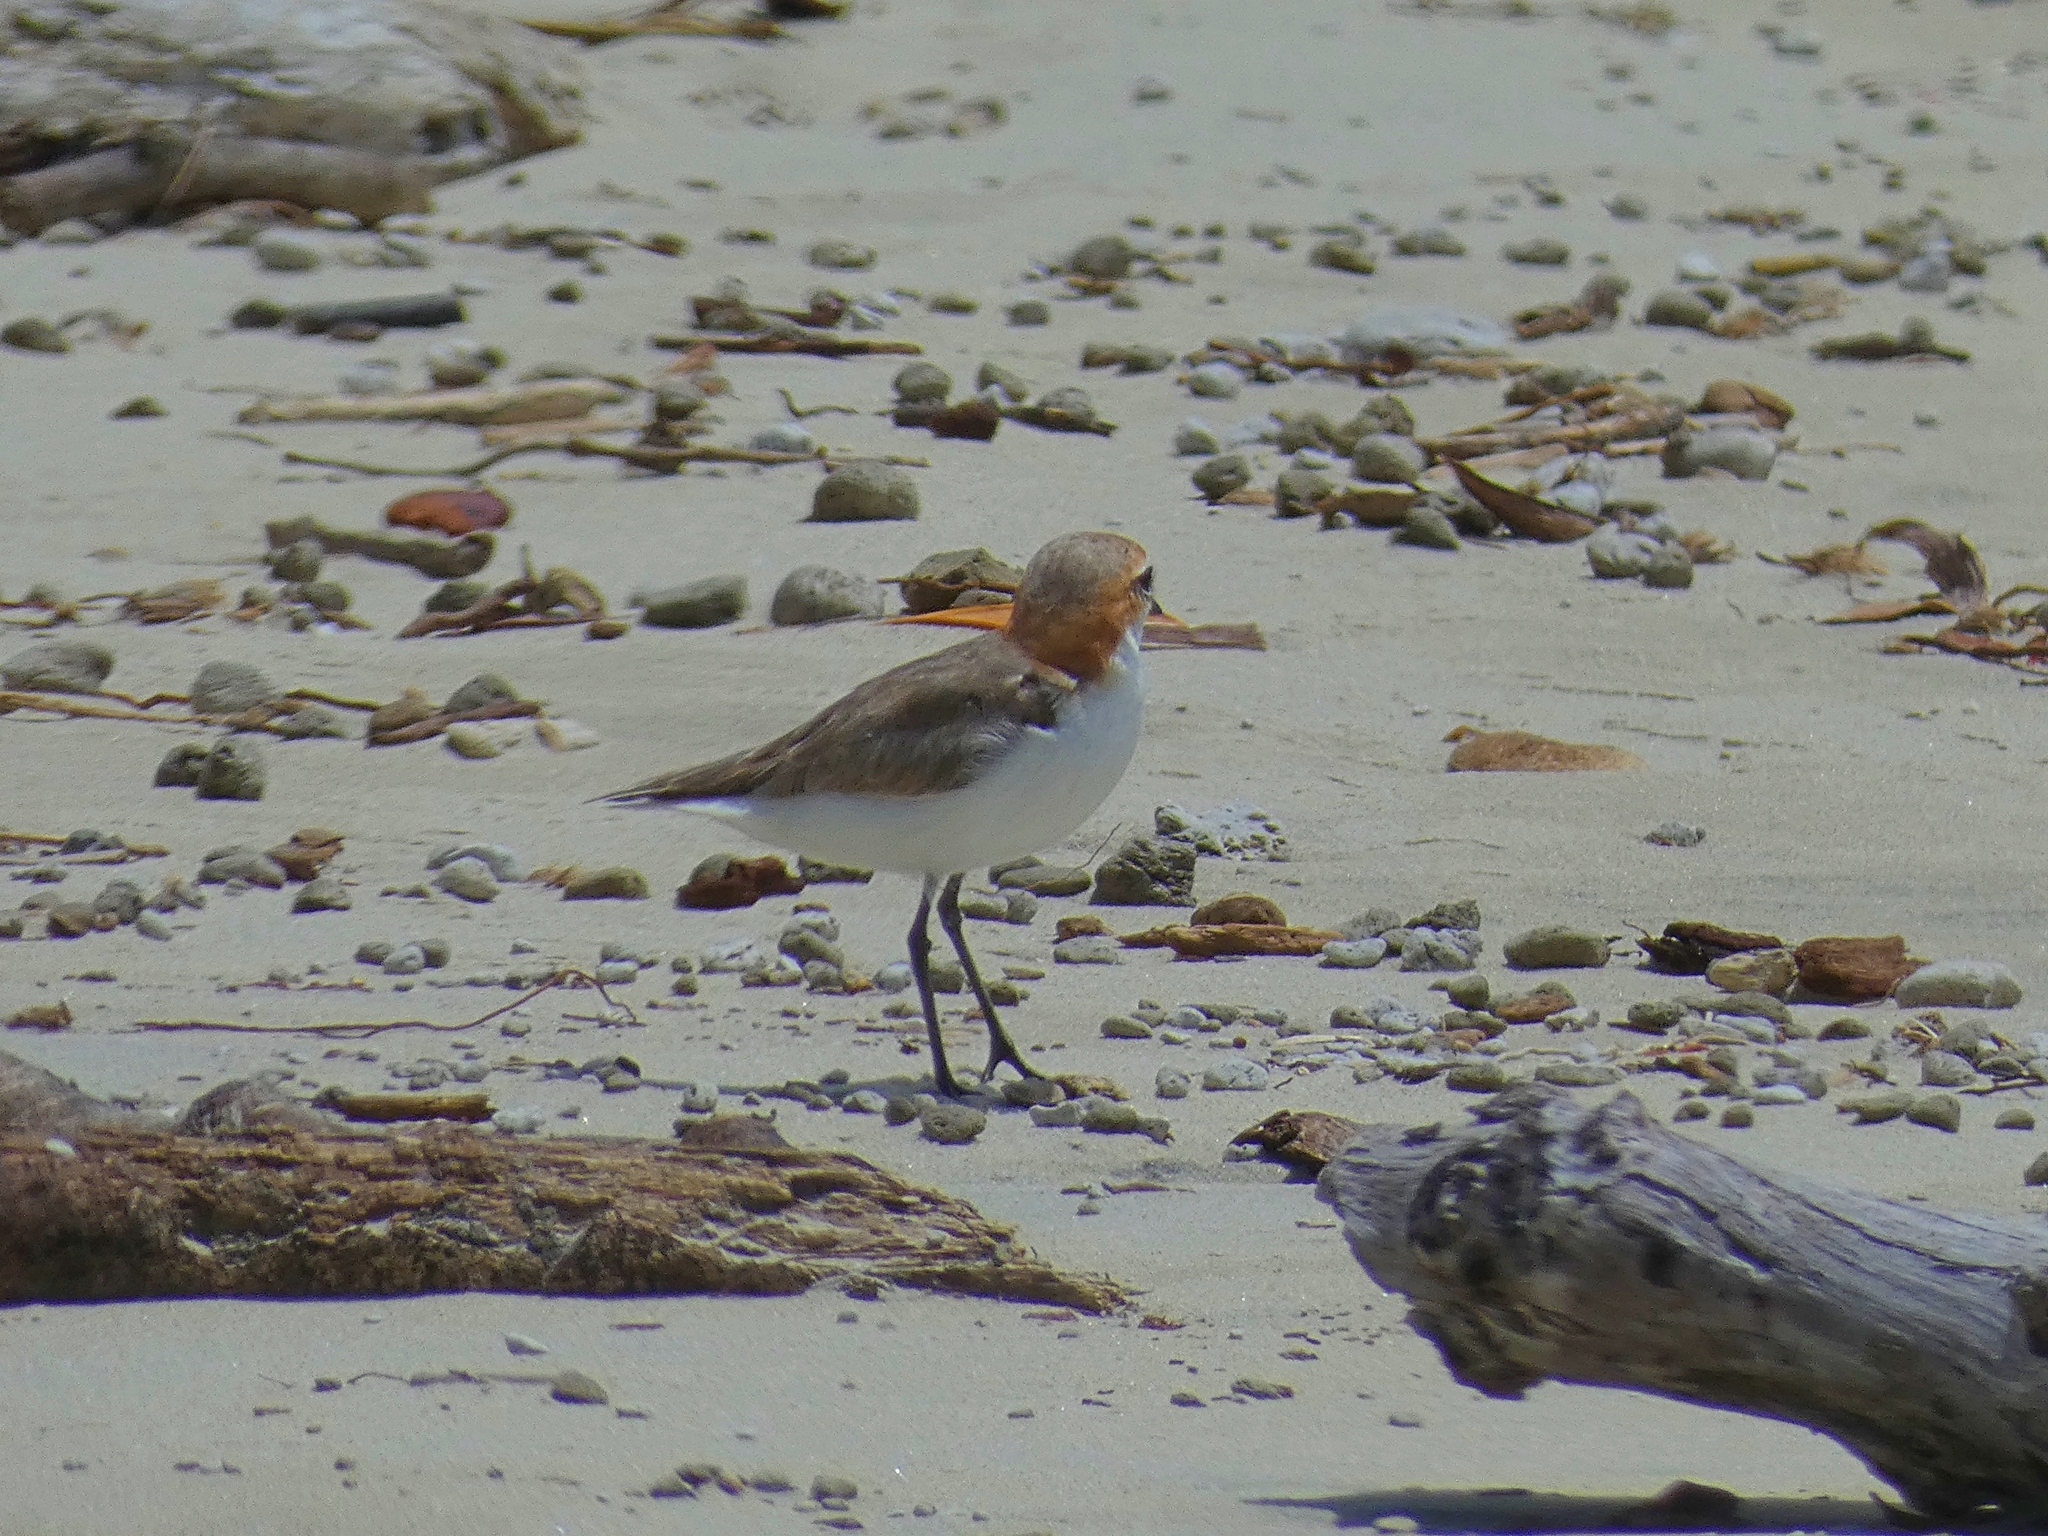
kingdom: Animalia
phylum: Chordata
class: Aves
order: Charadriiformes
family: Charadriidae
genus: Anarhynchus
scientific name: Anarhynchus
